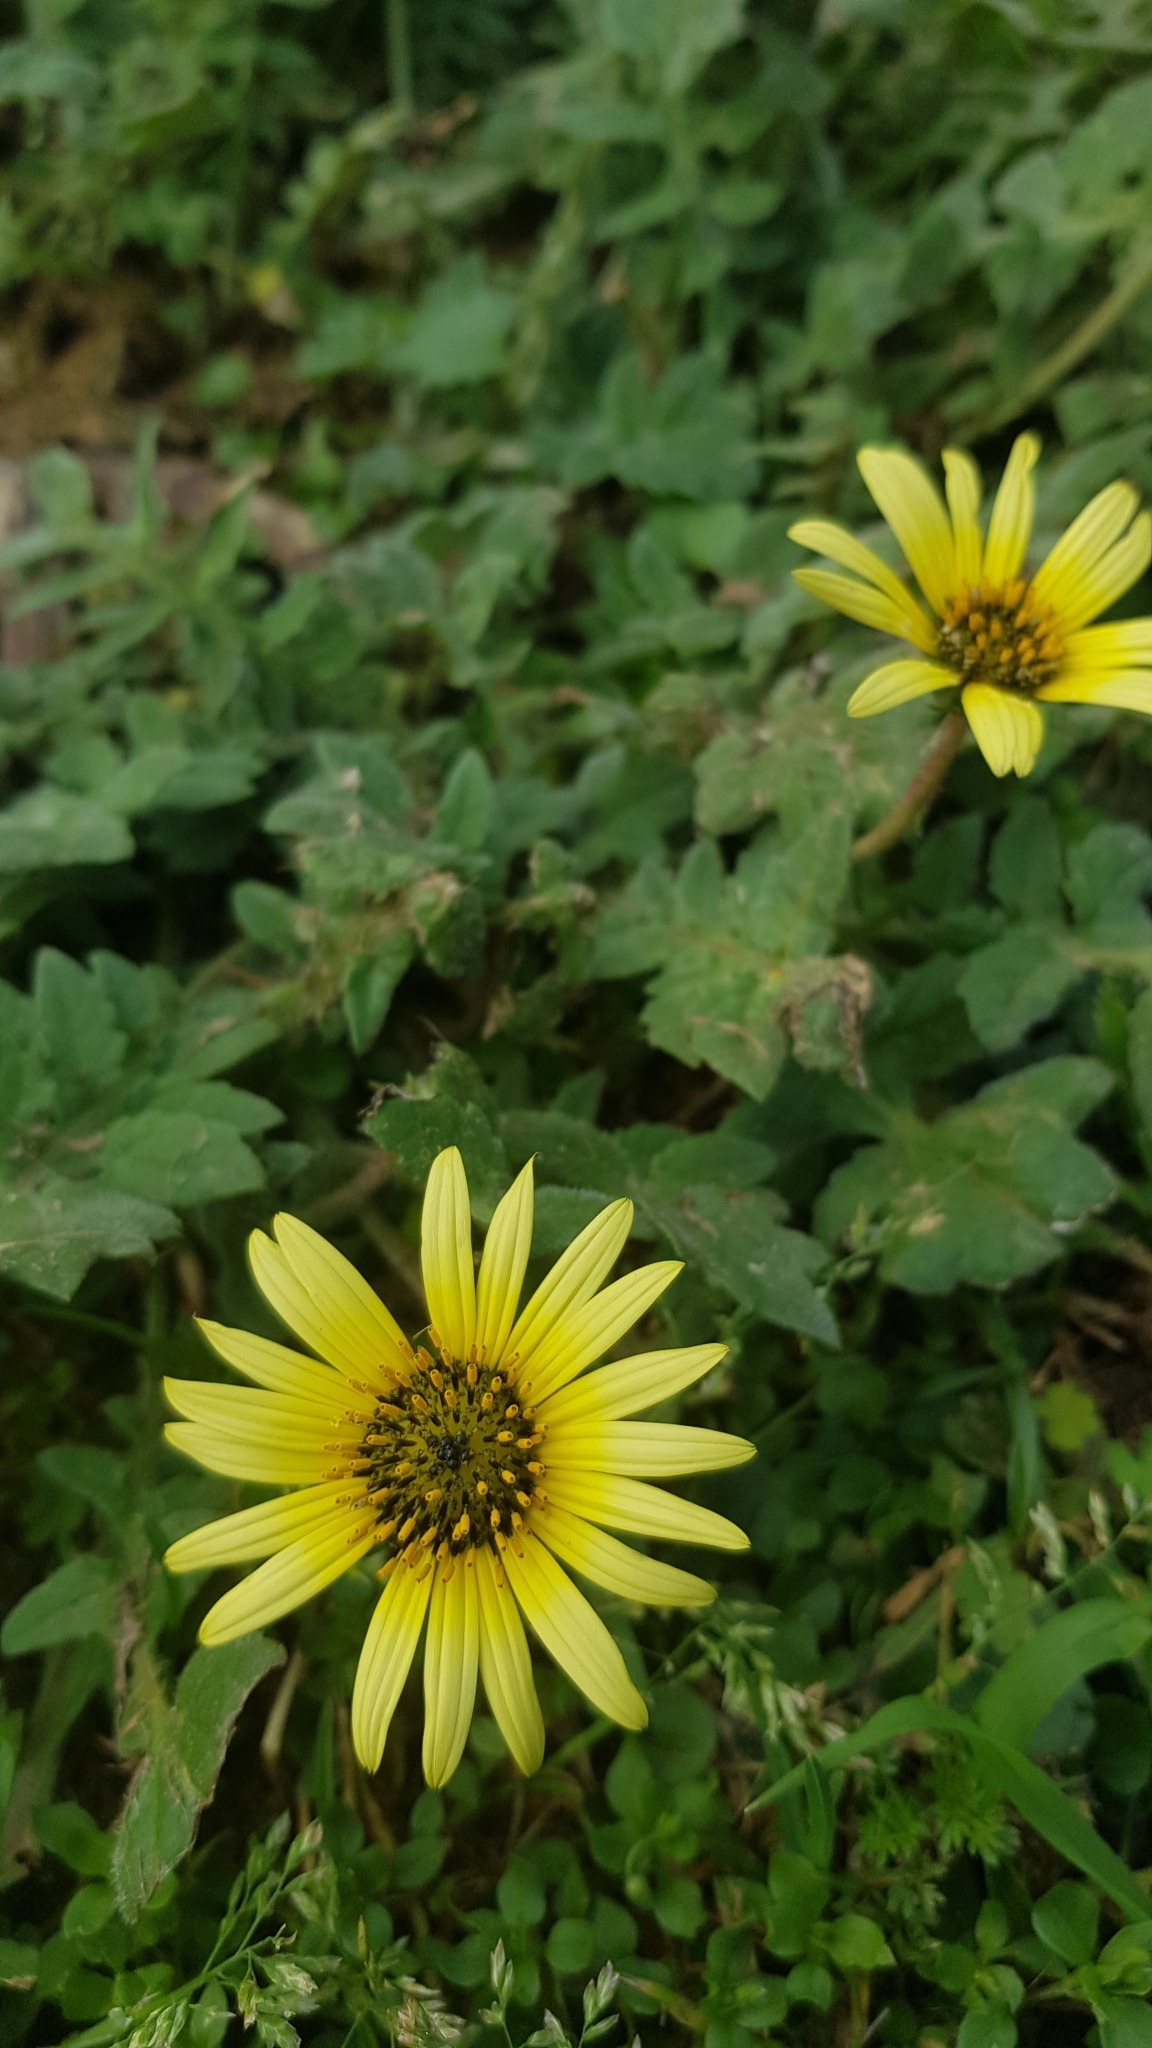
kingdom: Plantae
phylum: Tracheophyta
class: Magnoliopsida
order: Asterales
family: Asteraceae
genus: Arctotheca
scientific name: Arctotheca calendula
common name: Capeweed
